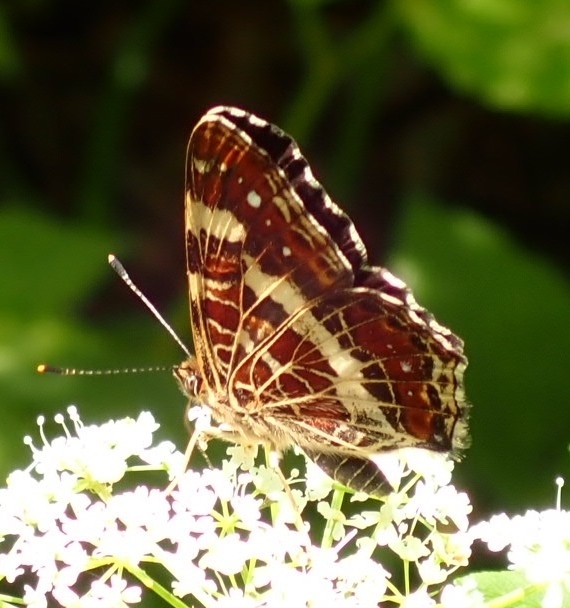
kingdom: Animalia
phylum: Arthropoda
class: Insecta
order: Lepidoptera
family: Nymphalidae
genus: Araschnia
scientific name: Araschnia levana
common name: Map butterfly
